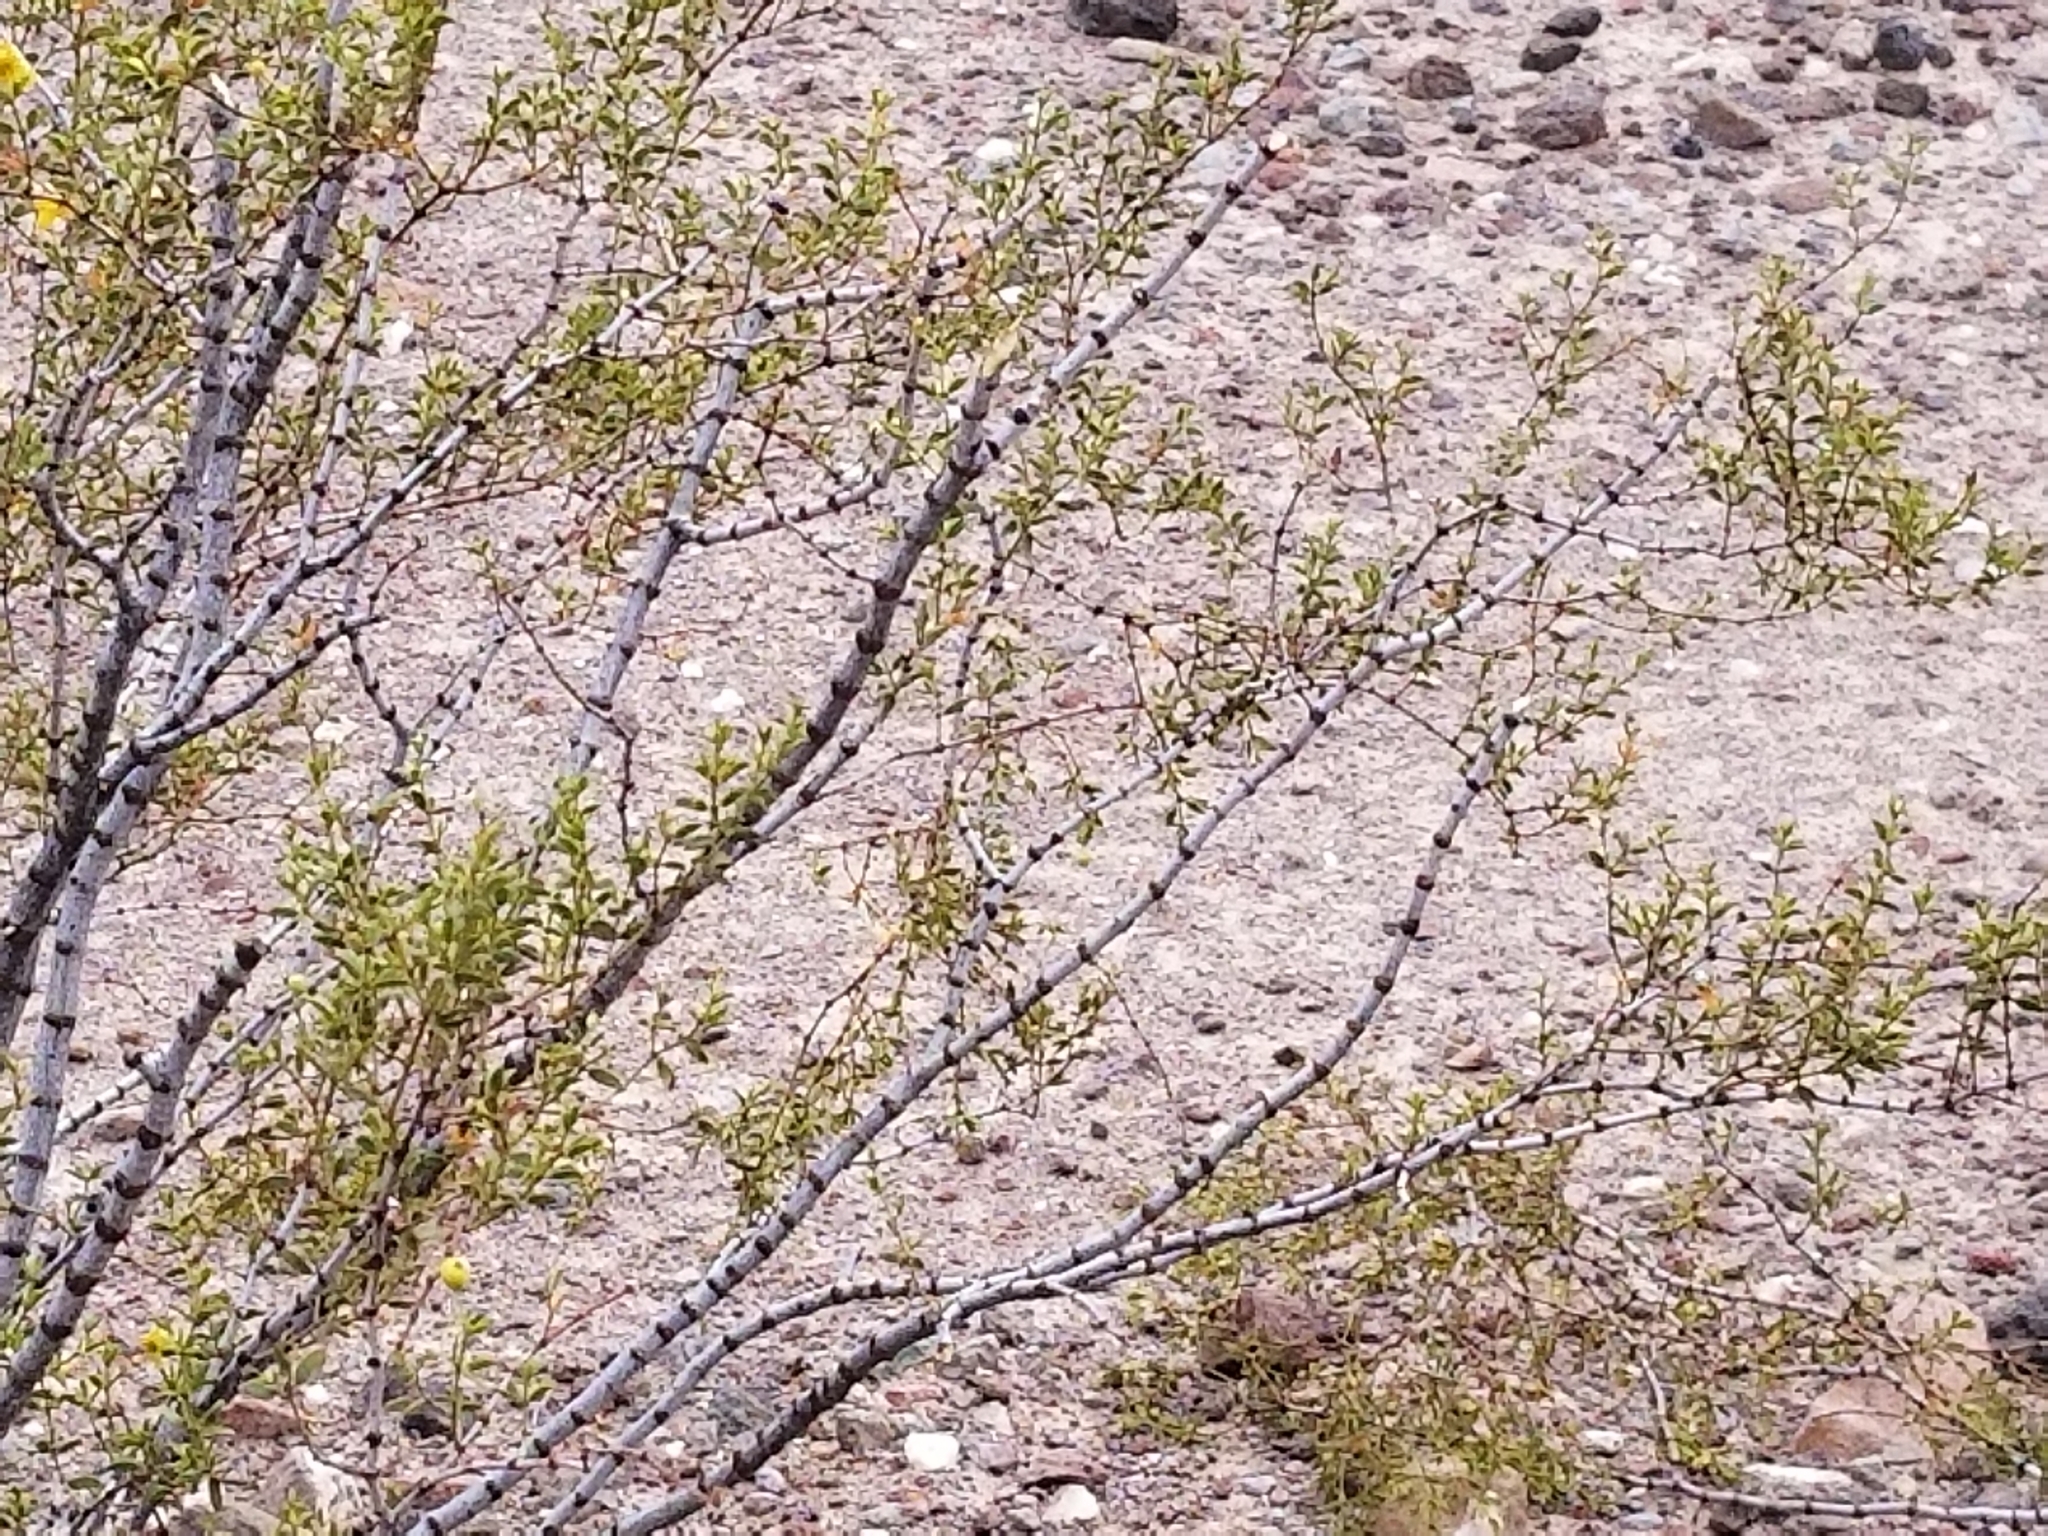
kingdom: Plantae
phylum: Tracheophyta
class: Magnoliopsida
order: Zygophyllales
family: Zygophyllaceae
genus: Larrea
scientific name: Larrea tridentata
